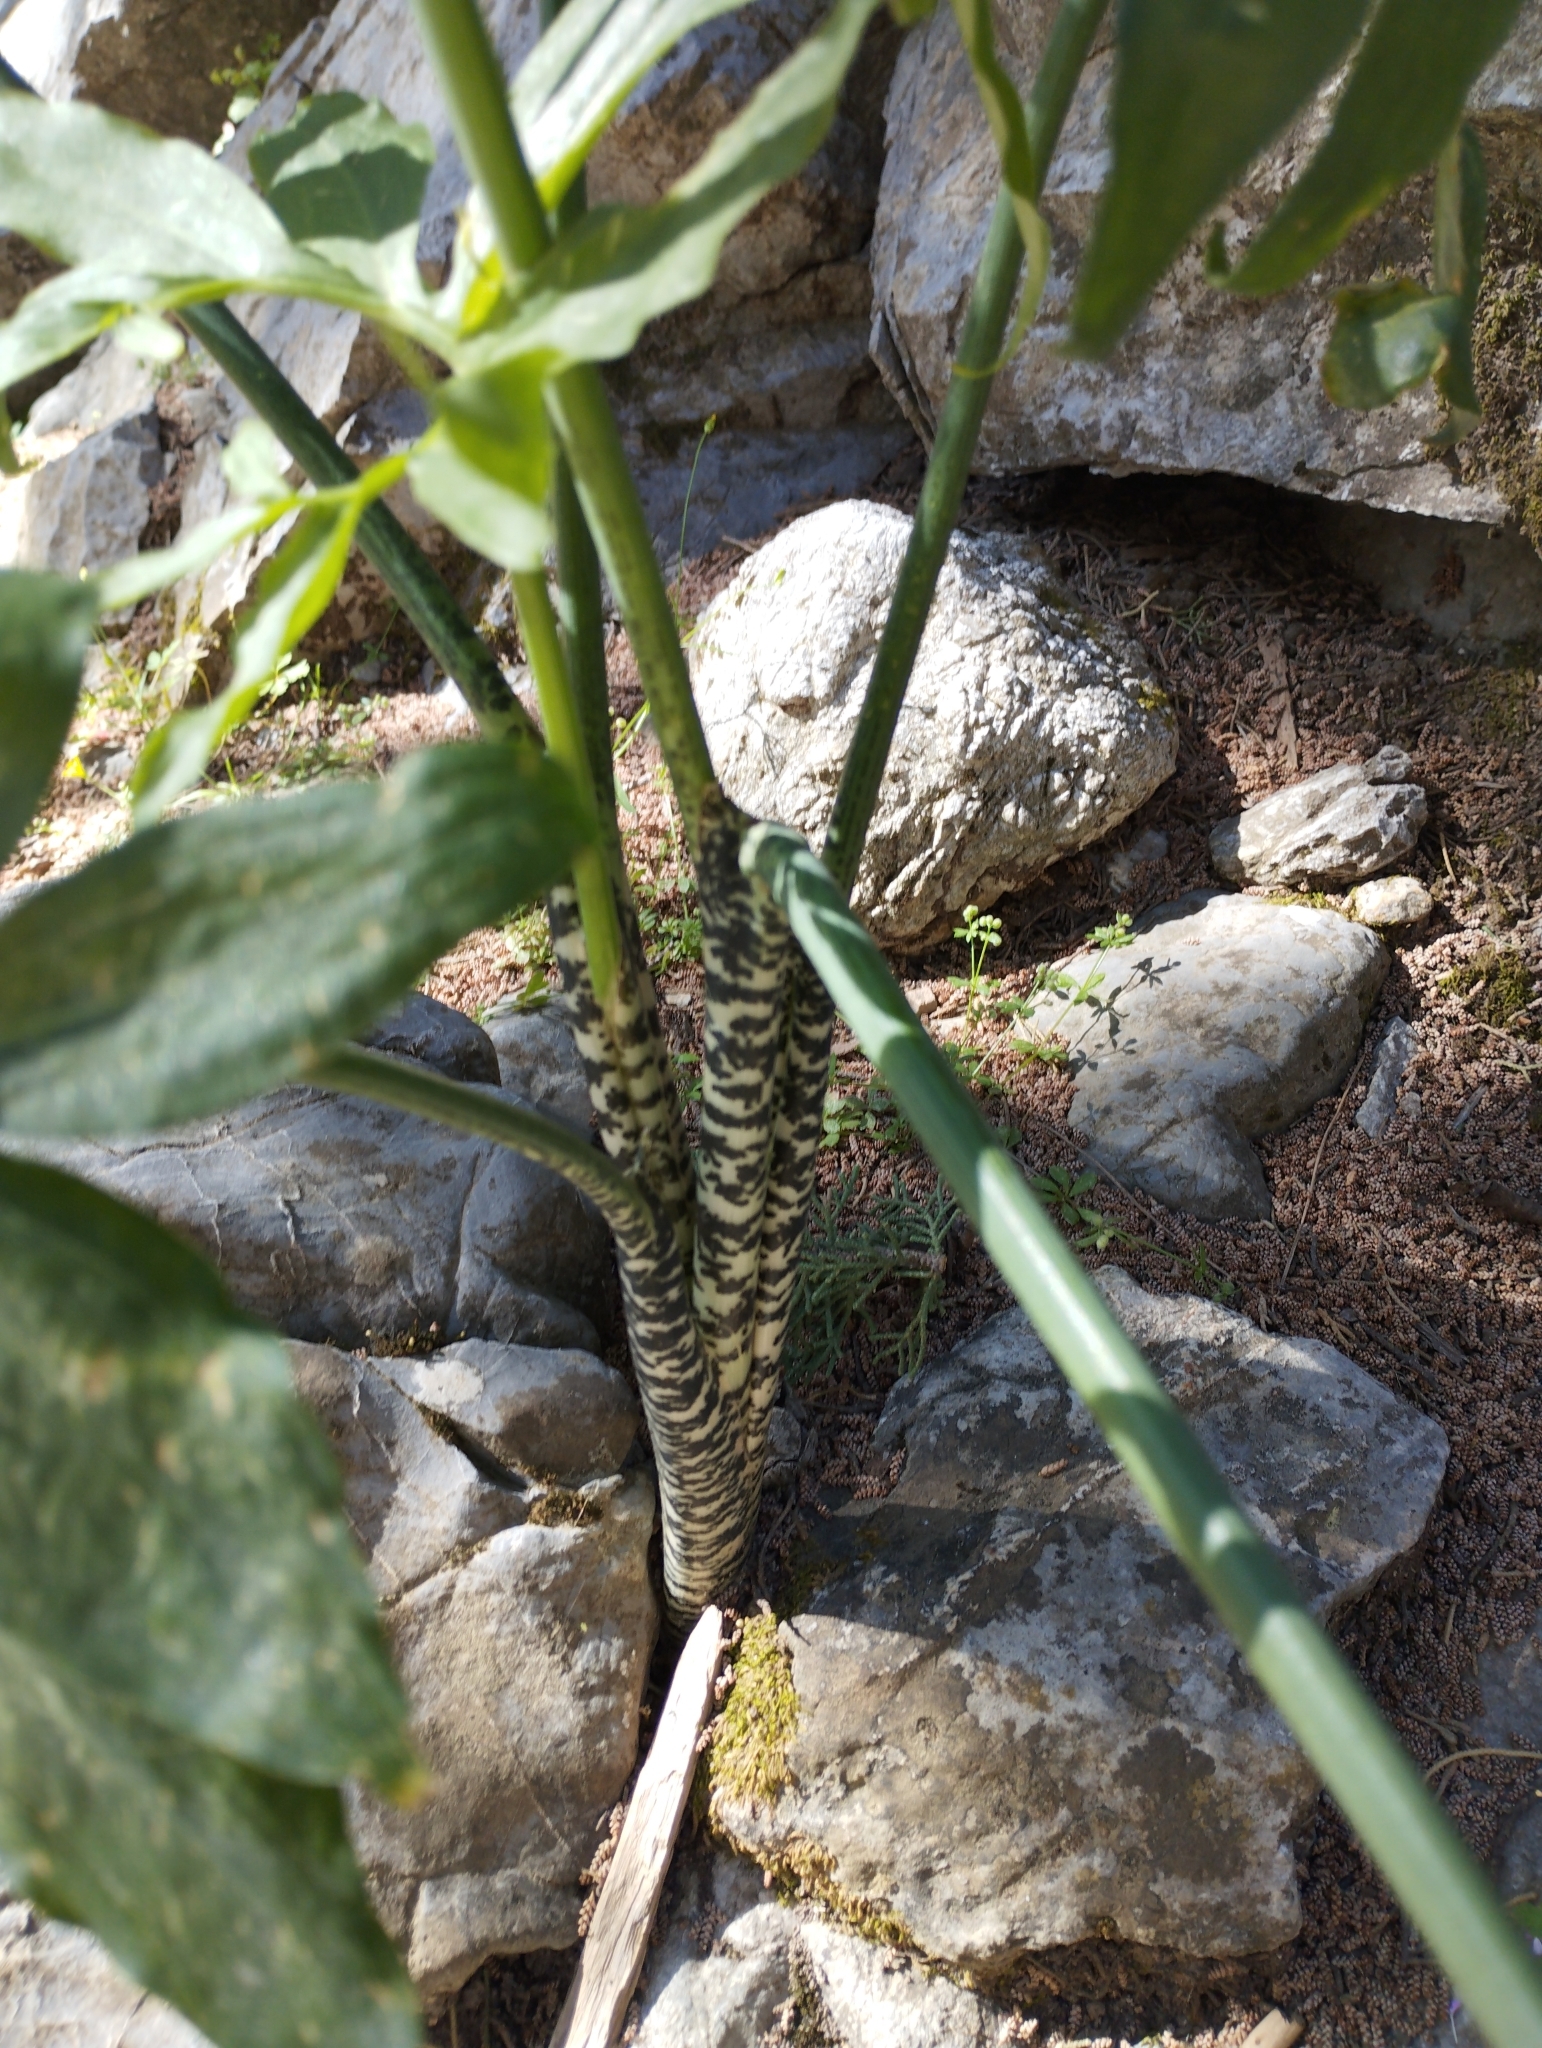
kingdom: Plantae
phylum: Tracheophyta
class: Liliopsida
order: Alismatales
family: Araceae
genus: Dracunculus
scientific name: Dracunculus vulgaris
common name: Dragon arum
